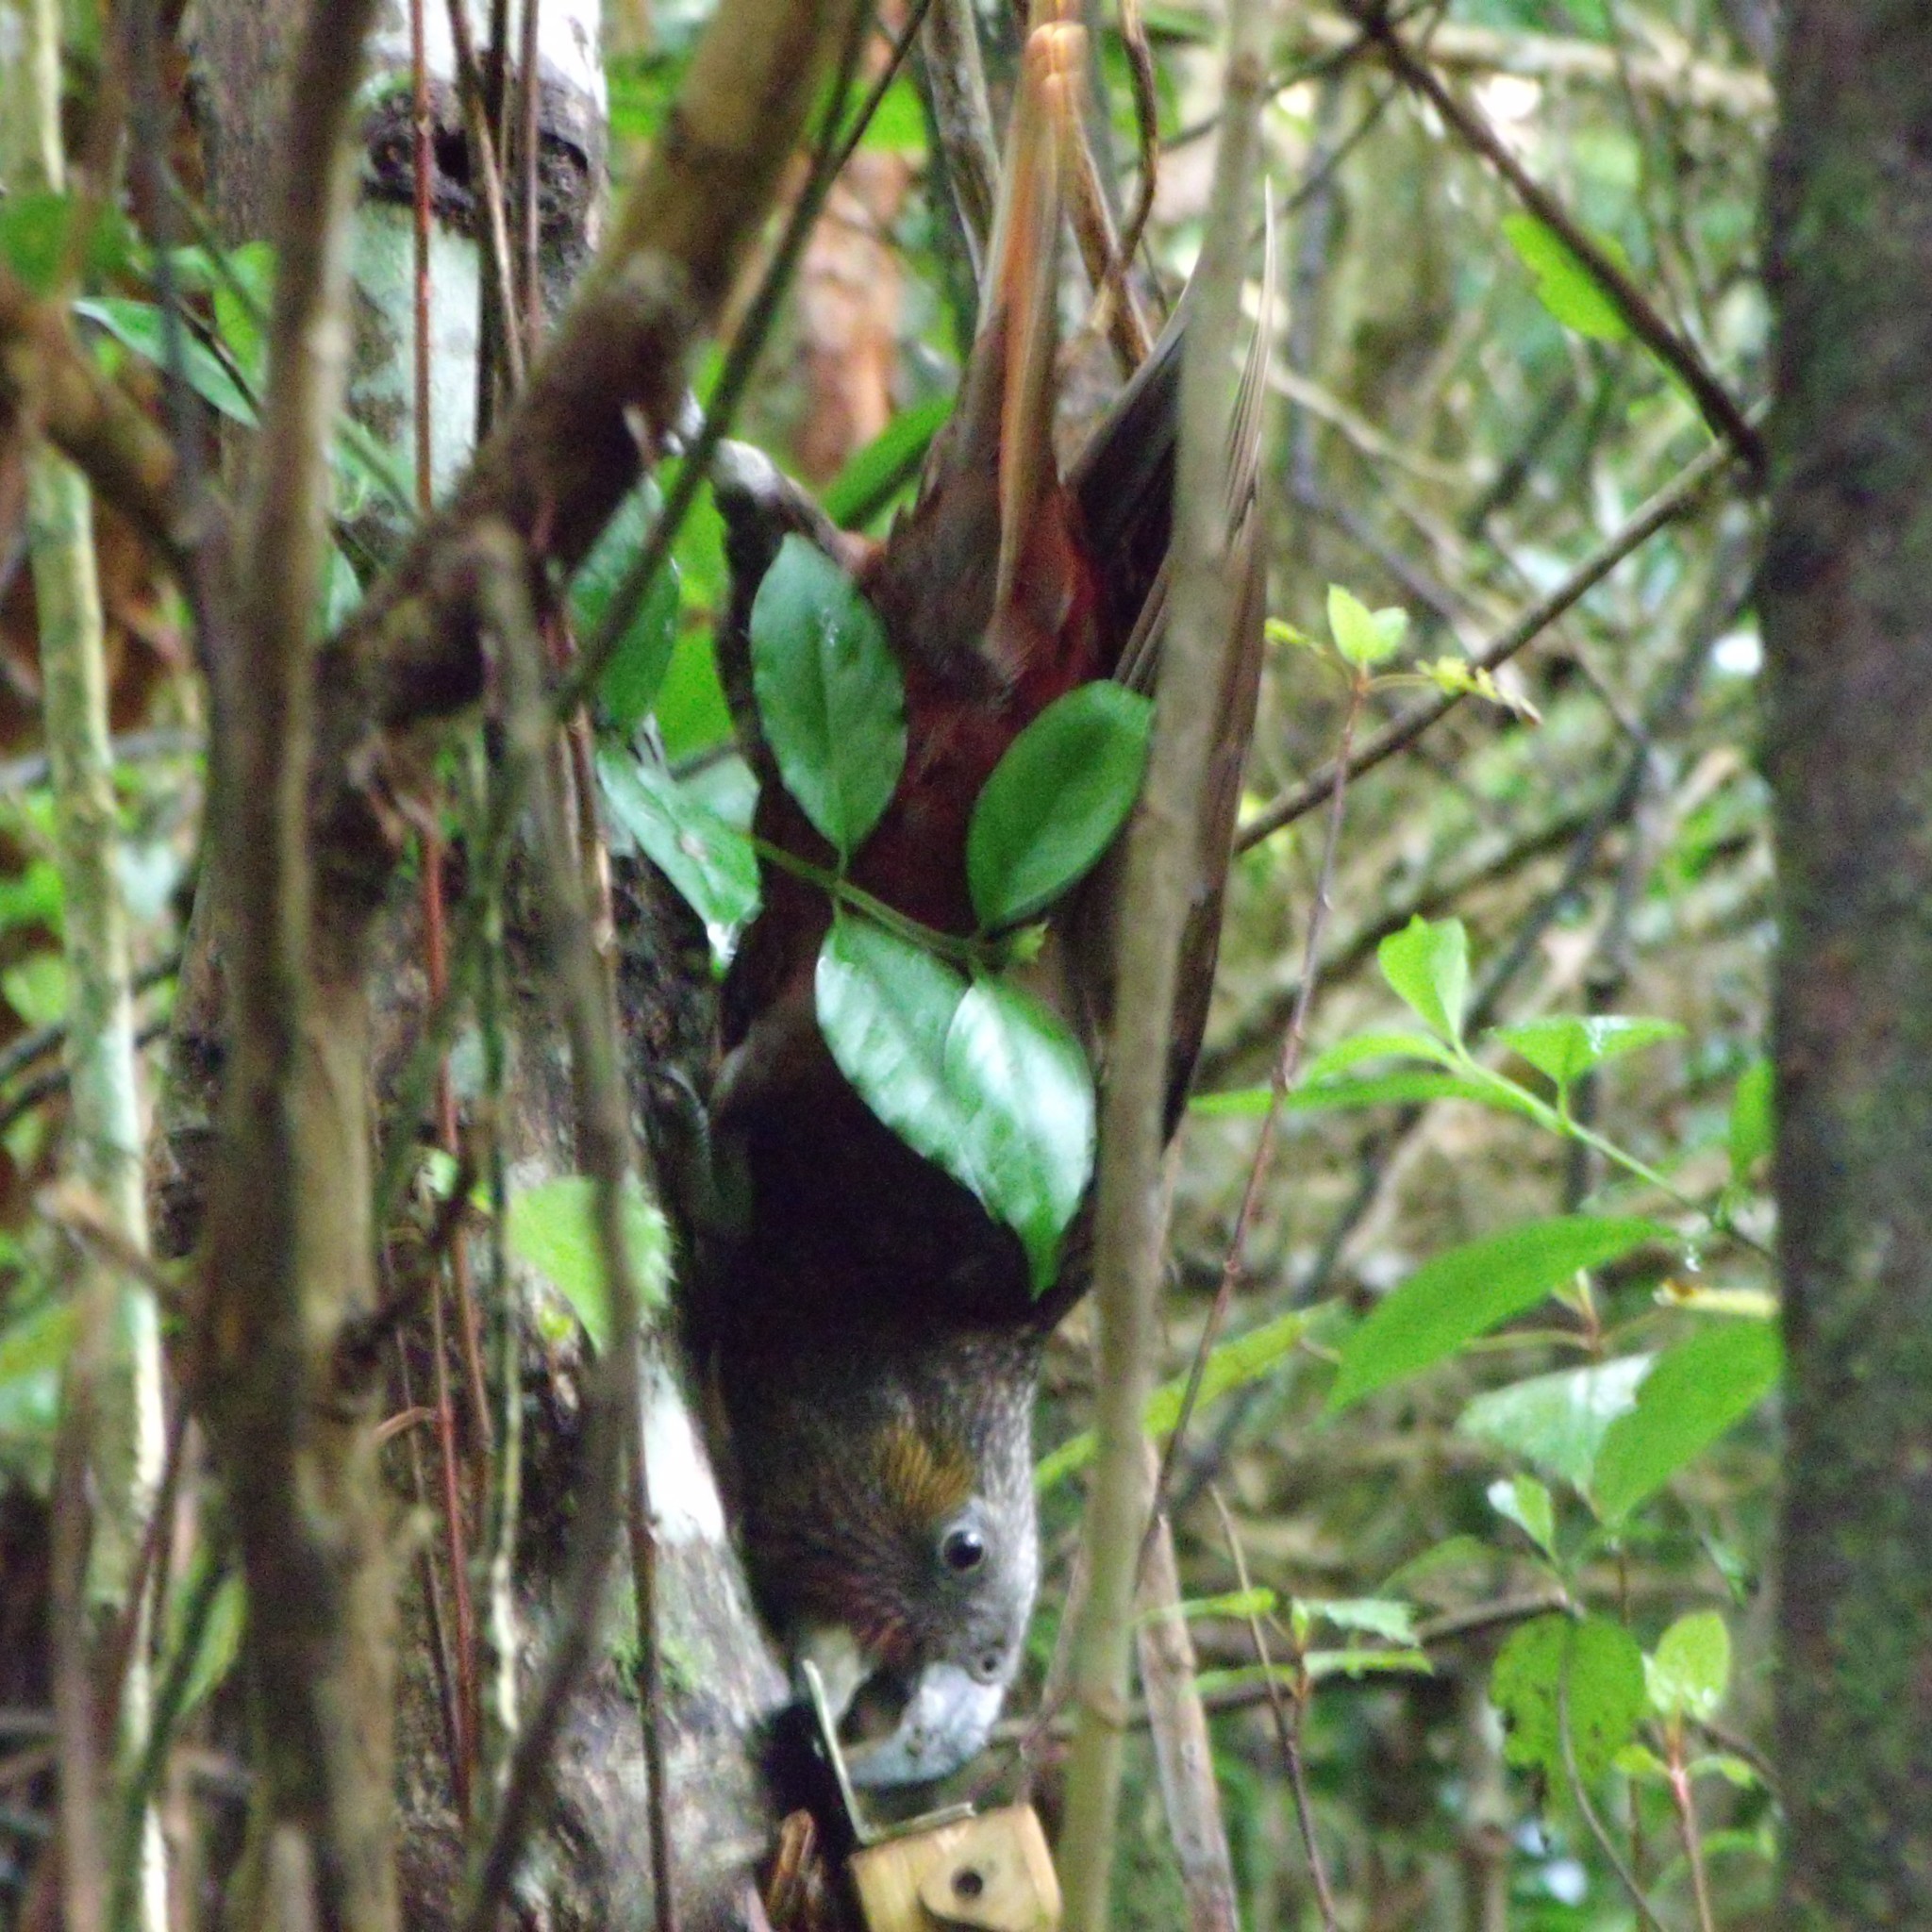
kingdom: Animalia
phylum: Chordata
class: Aves
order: Psittaciformes
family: Psittacidae
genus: Nestor
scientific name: Nestor meridionalis
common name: New zealand kaka
